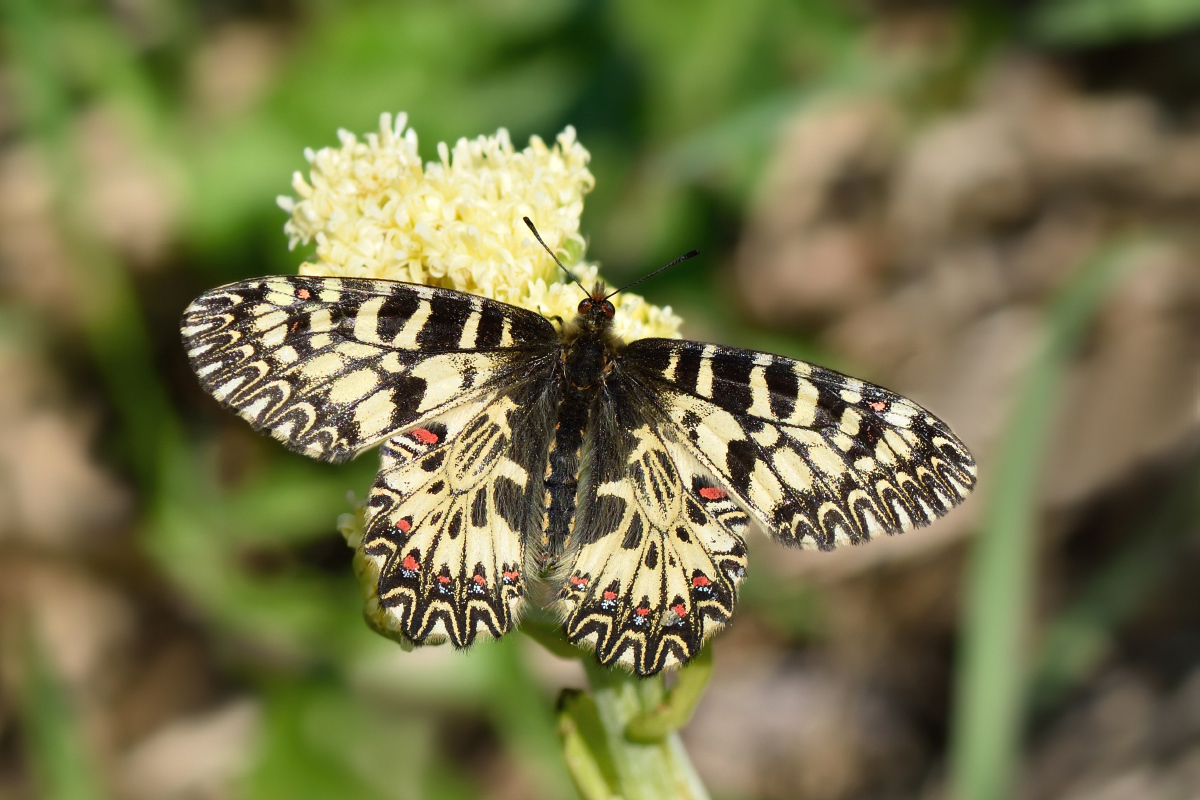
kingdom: Animalia
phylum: Arthropoda
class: Insecta
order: Lepidoptera
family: Papilionidae
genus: Zerynthia
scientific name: Zerynthia polyxena
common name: Southern festoon
